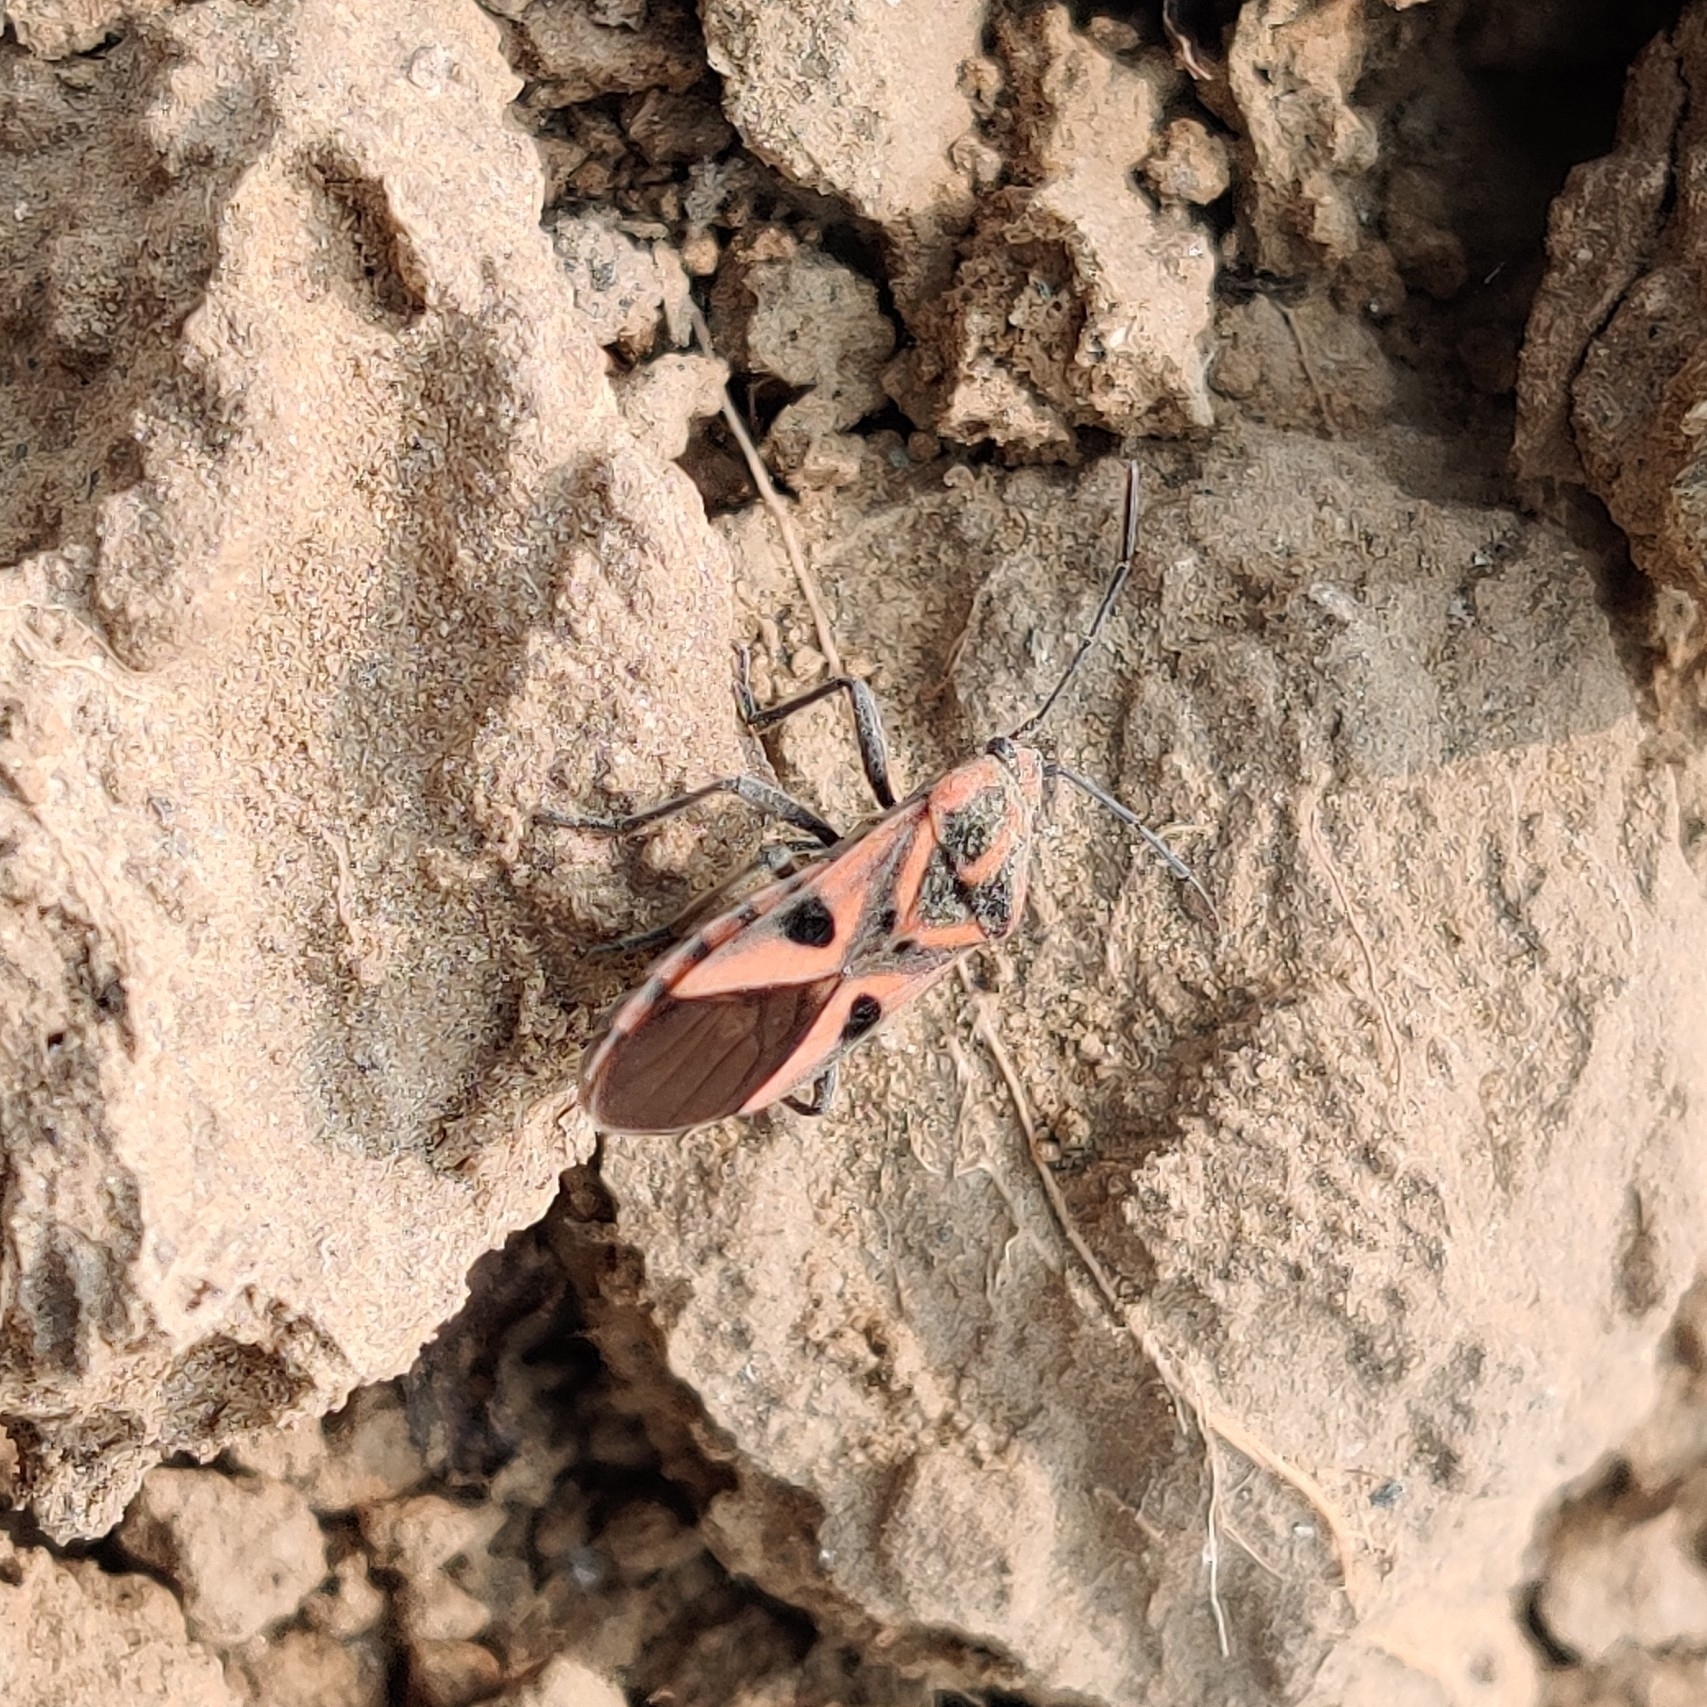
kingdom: Animalia
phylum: Arthropoda
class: Insecta
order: Hemiptera
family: Lygaeidae
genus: Spilostethus
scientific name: Spilostethus hospes
